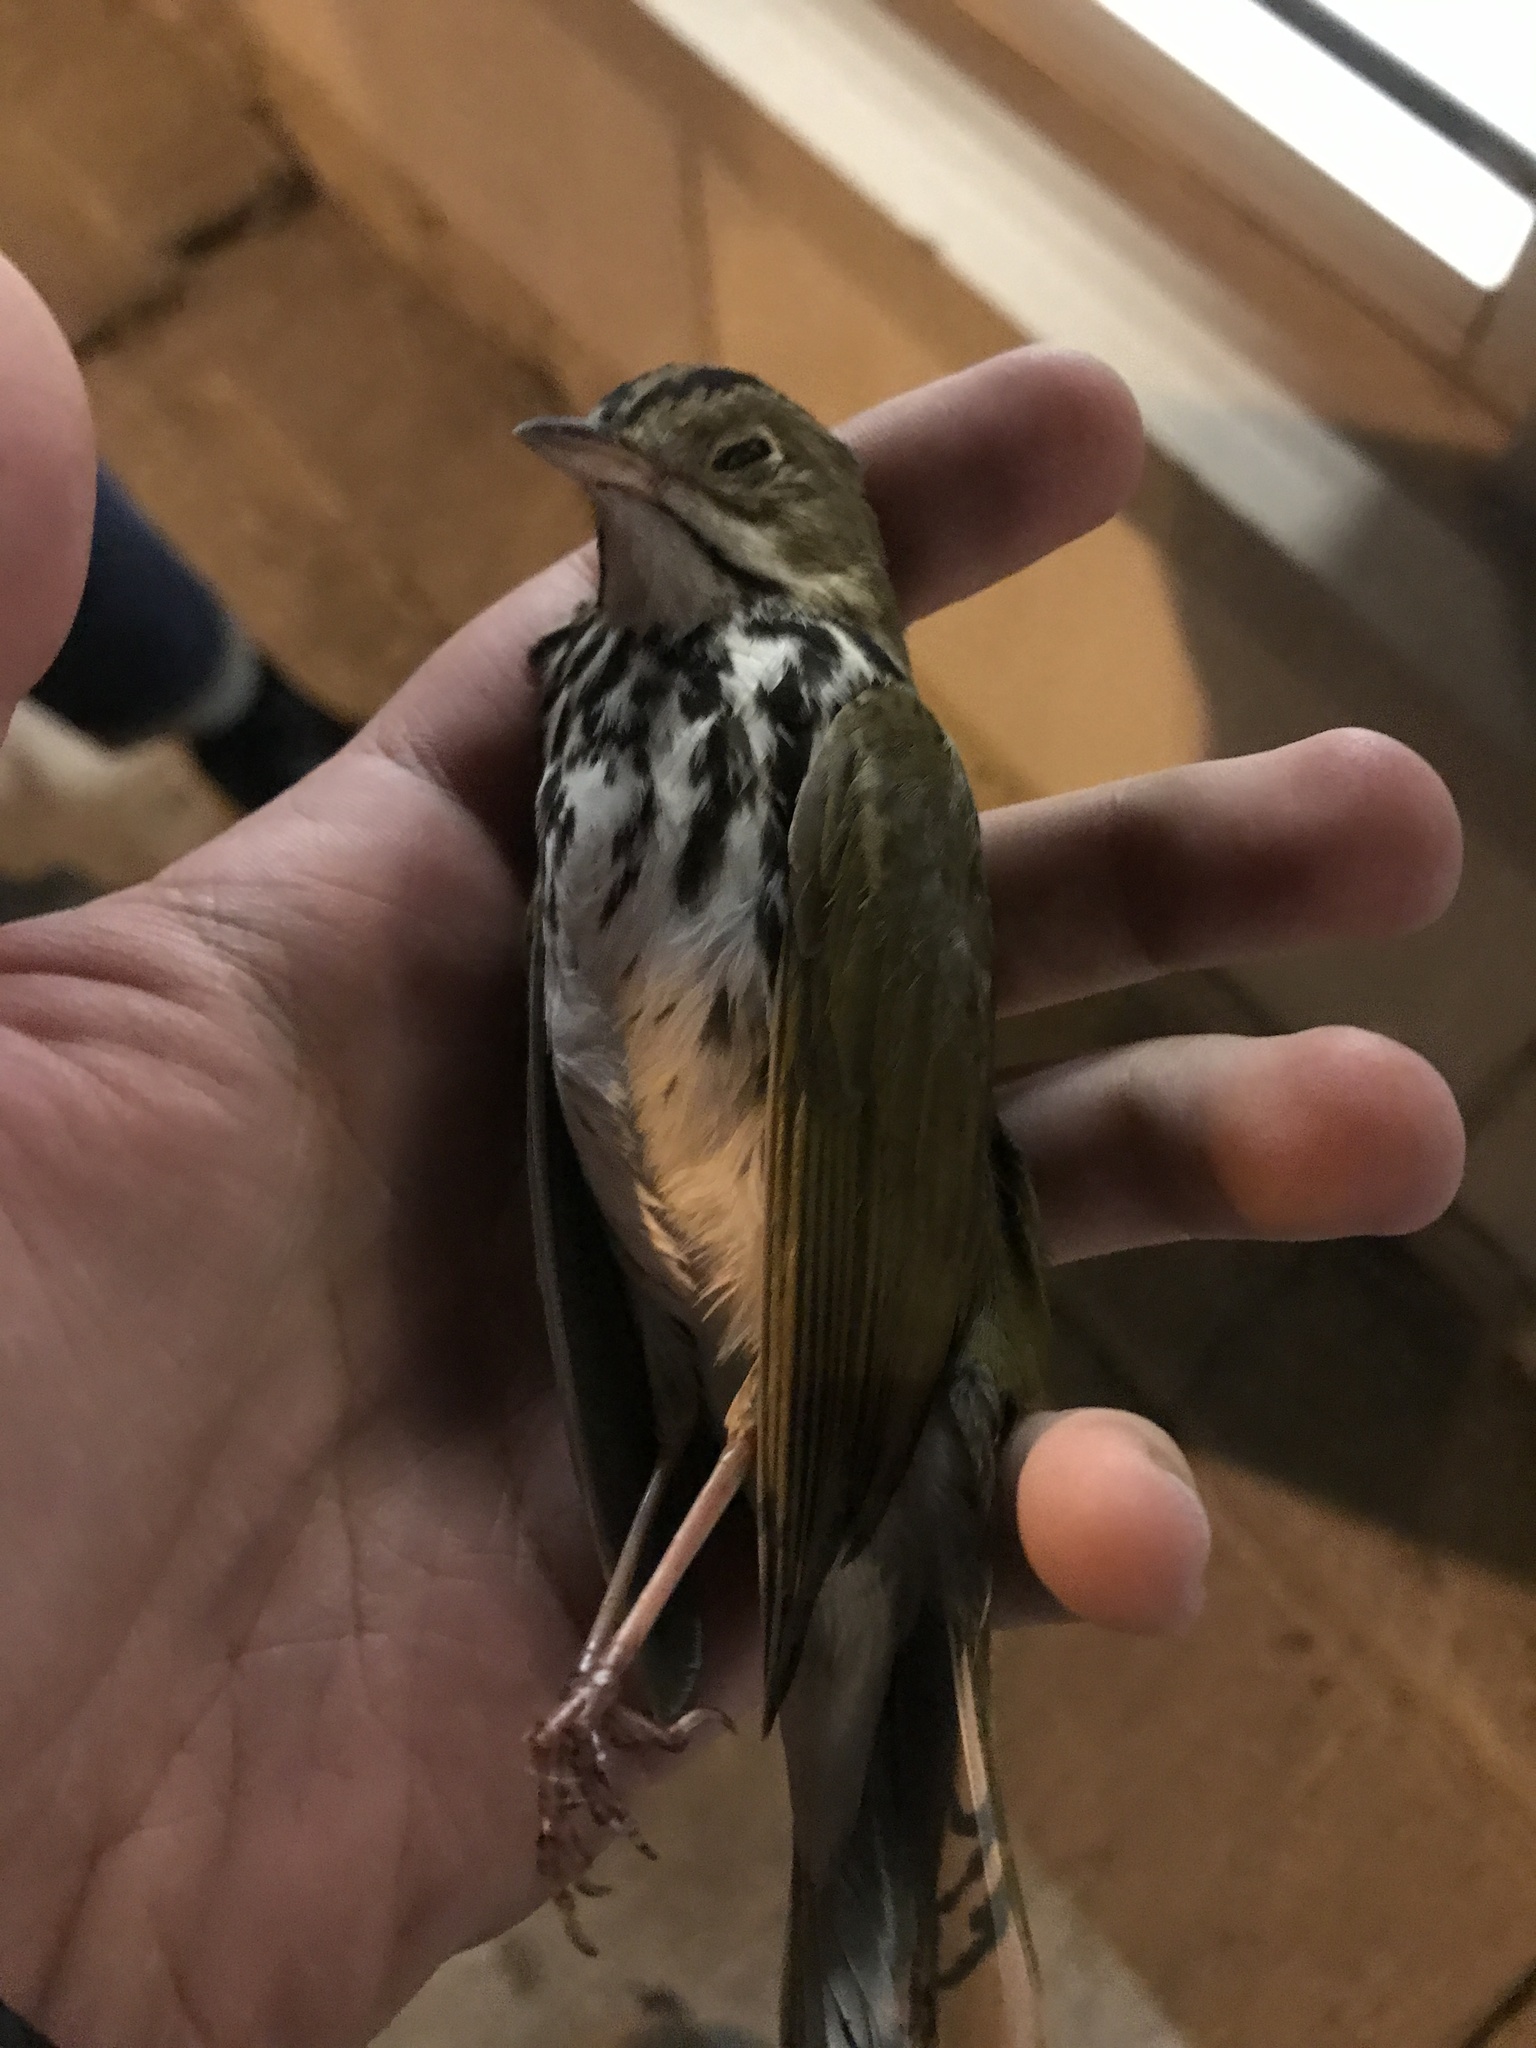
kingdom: Animalia
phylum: Chordata
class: Aves
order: Passeriformes
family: Parulidae
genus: Seiurus
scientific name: Seiurus aurocapilla
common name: Ovenbird
